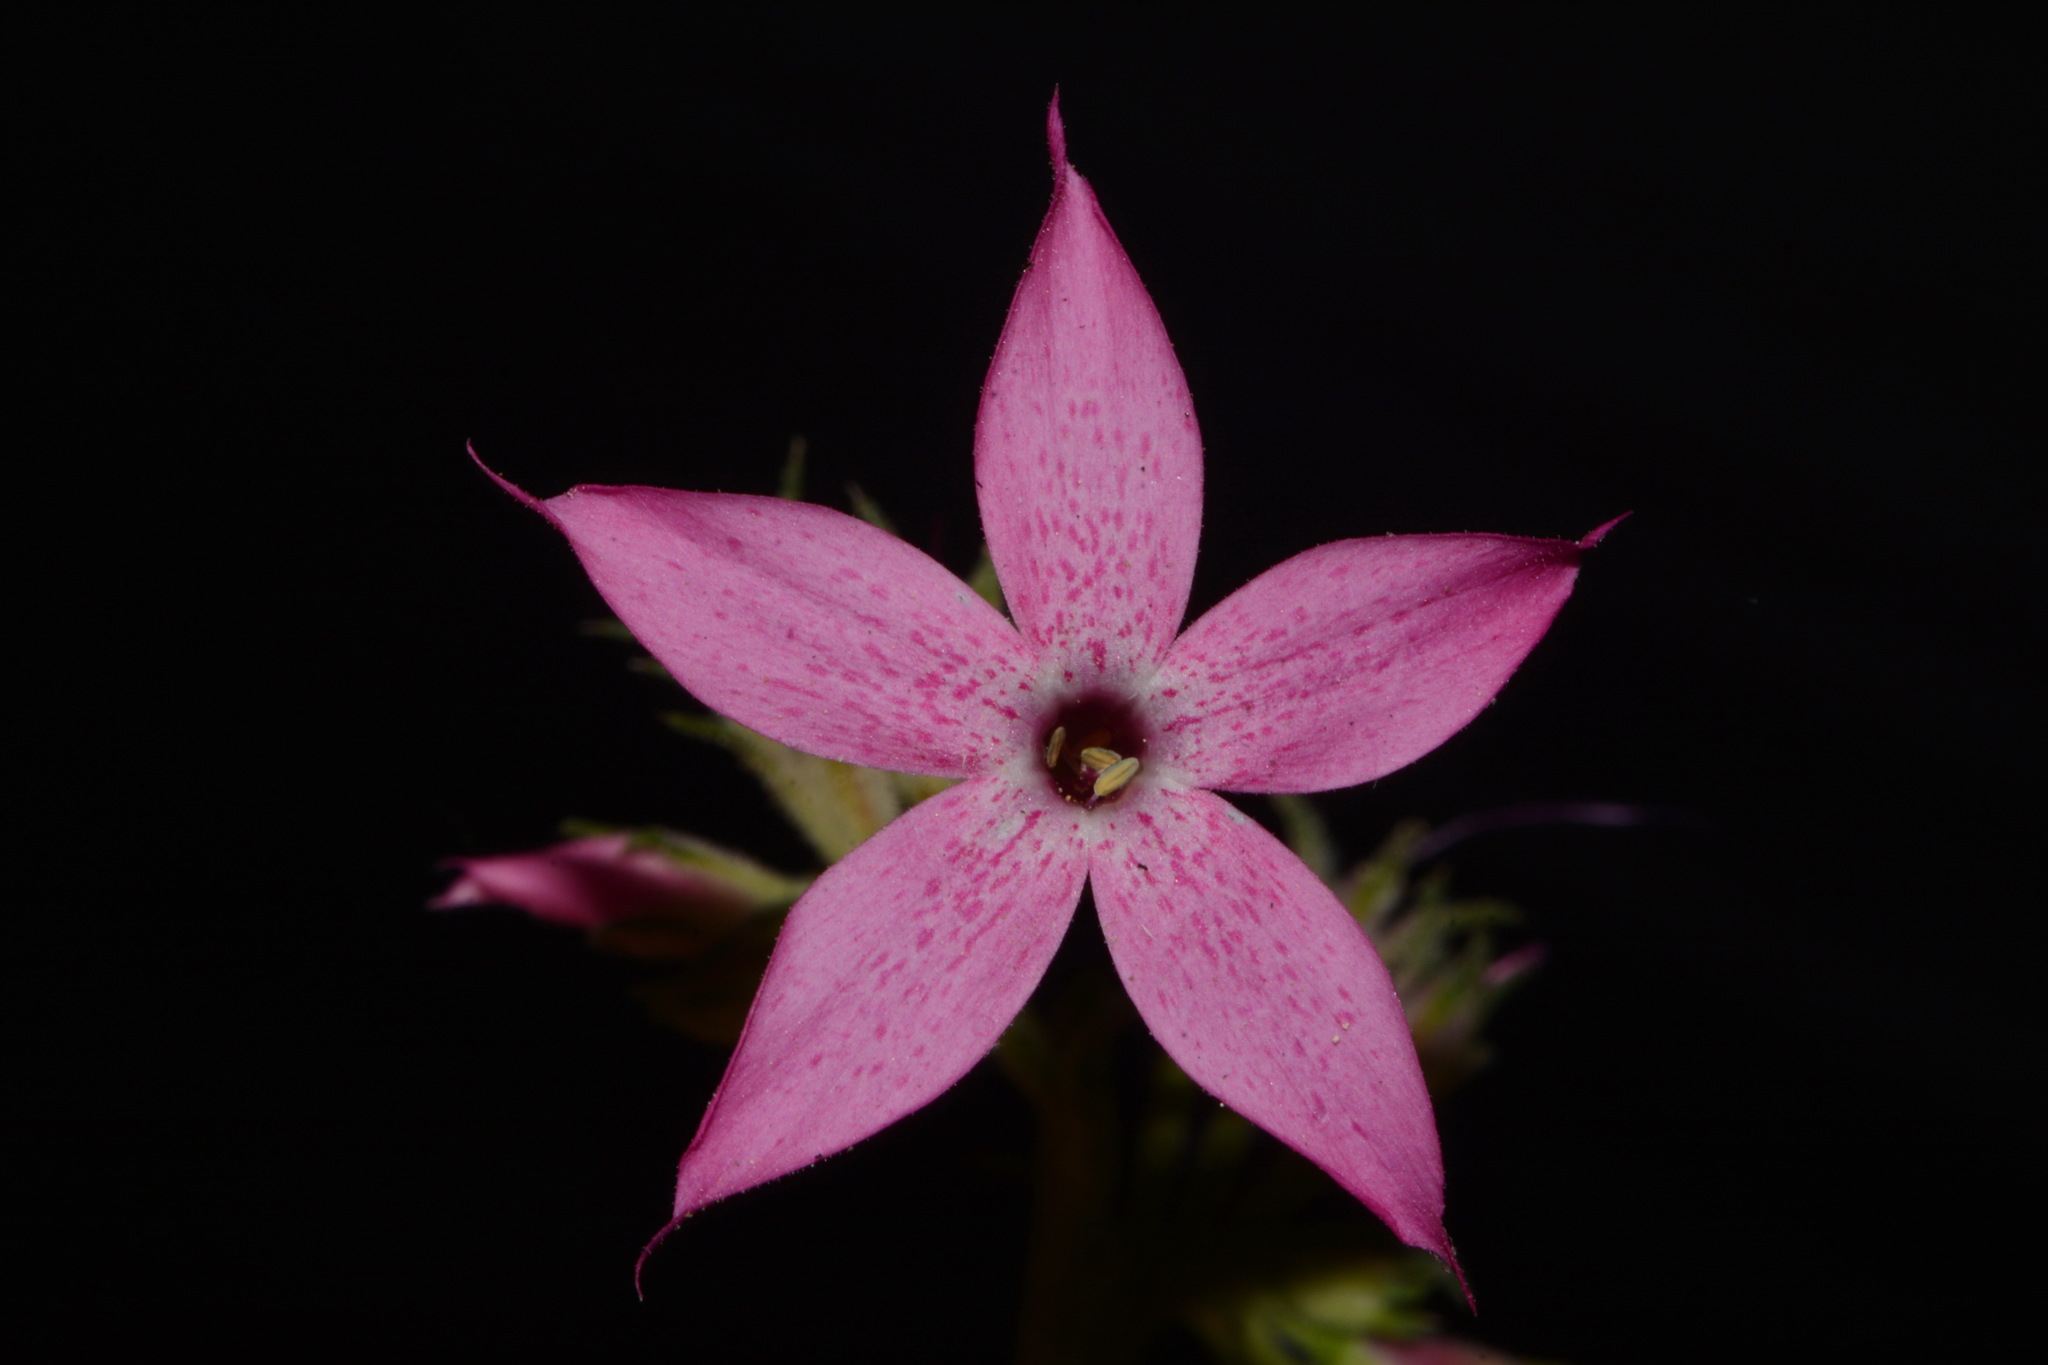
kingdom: Plantae
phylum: Tracheophyta
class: Magnoliopsida
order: Ericales
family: Polemoniaceae
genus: Ipomopsis
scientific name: Ipomopsis tenuituba
